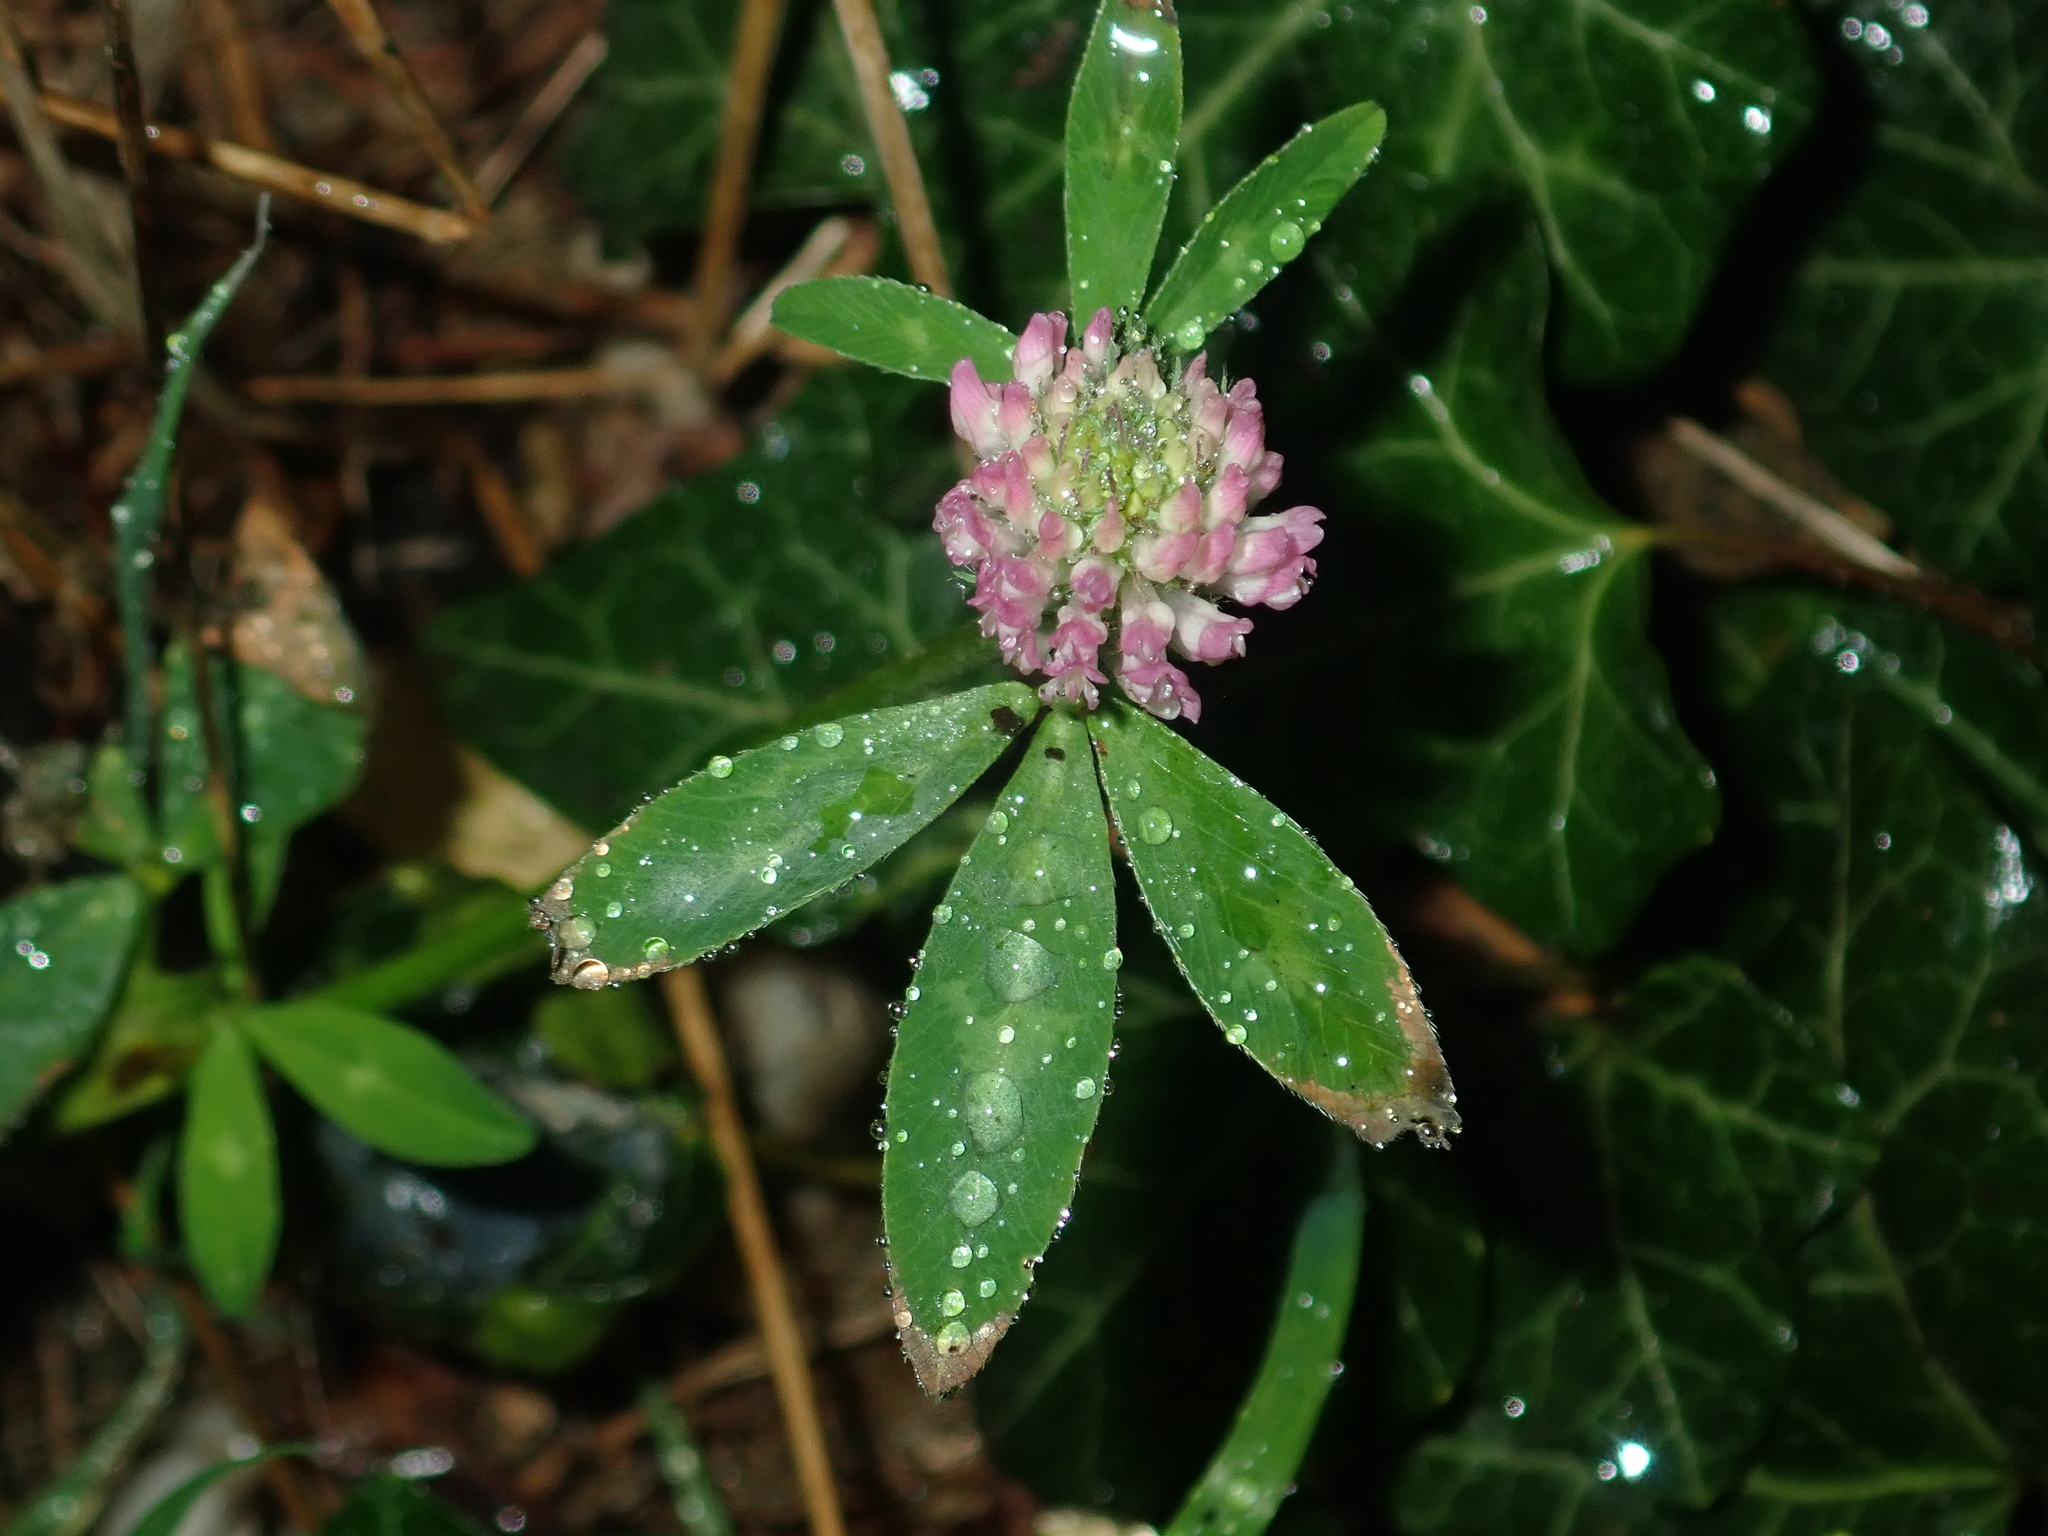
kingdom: Plantae
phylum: Tracheophyta
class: Magnoliopsida
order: Fabales
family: Fabaceae
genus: Trifolium
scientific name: Trifolium pratense
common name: Red clover
